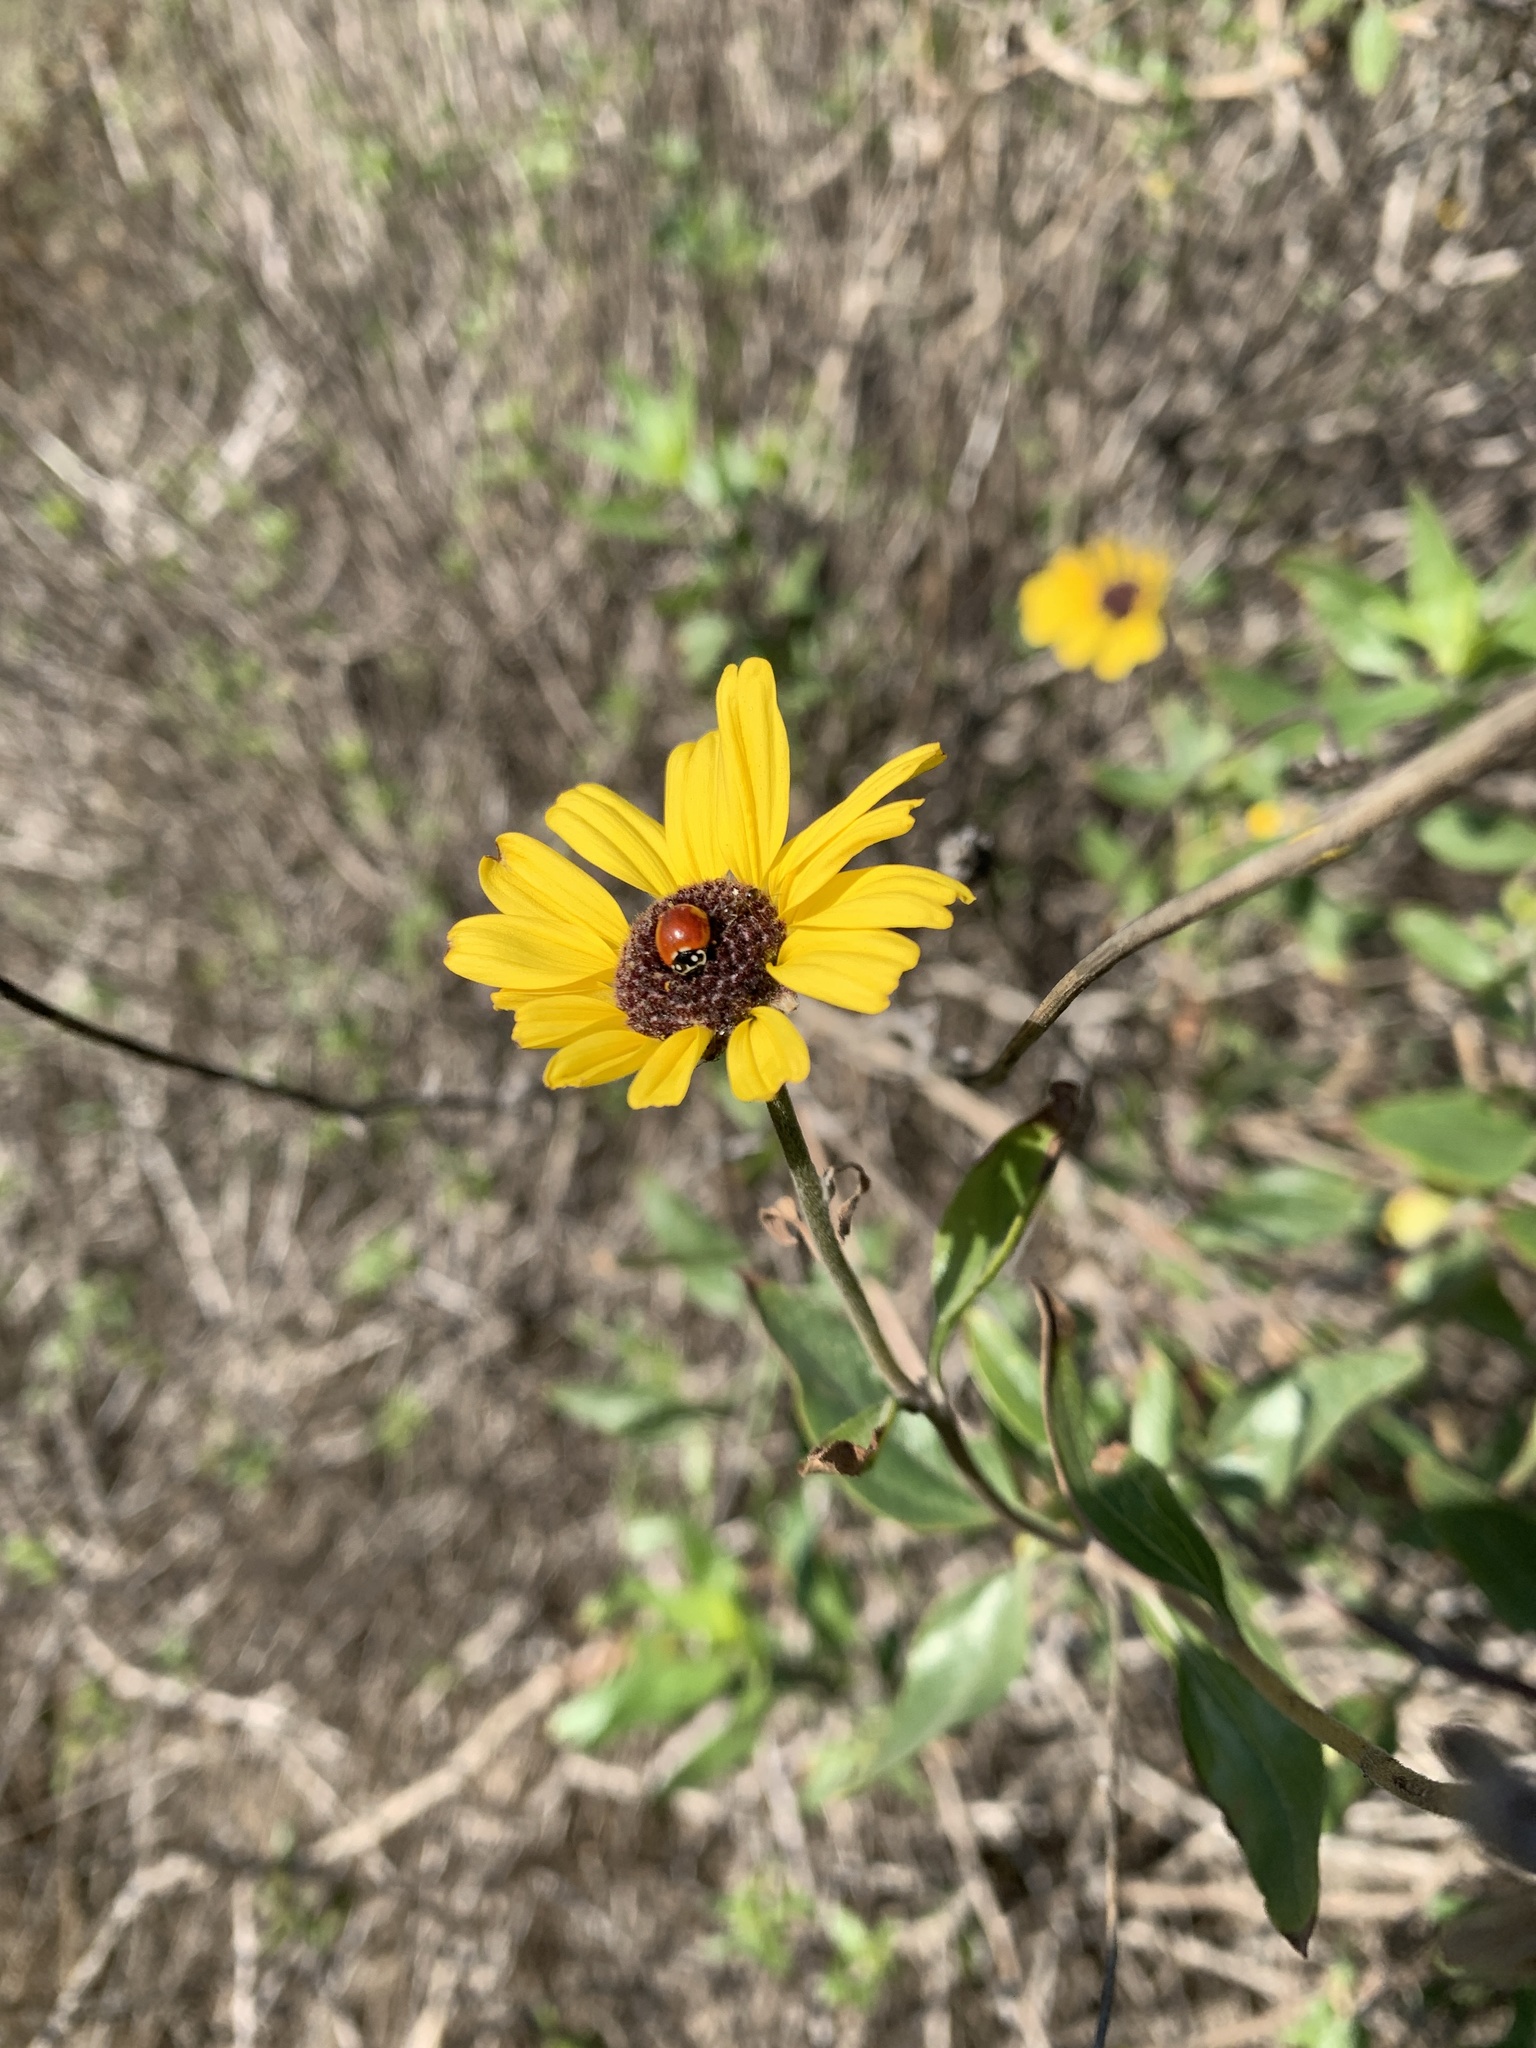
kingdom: Animalia
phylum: Arthropoda
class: Insecta
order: Coleoptera
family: Coccinellidae
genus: Cycloneda
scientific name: Cycloneda sanguinea
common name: Ladybird beetle
